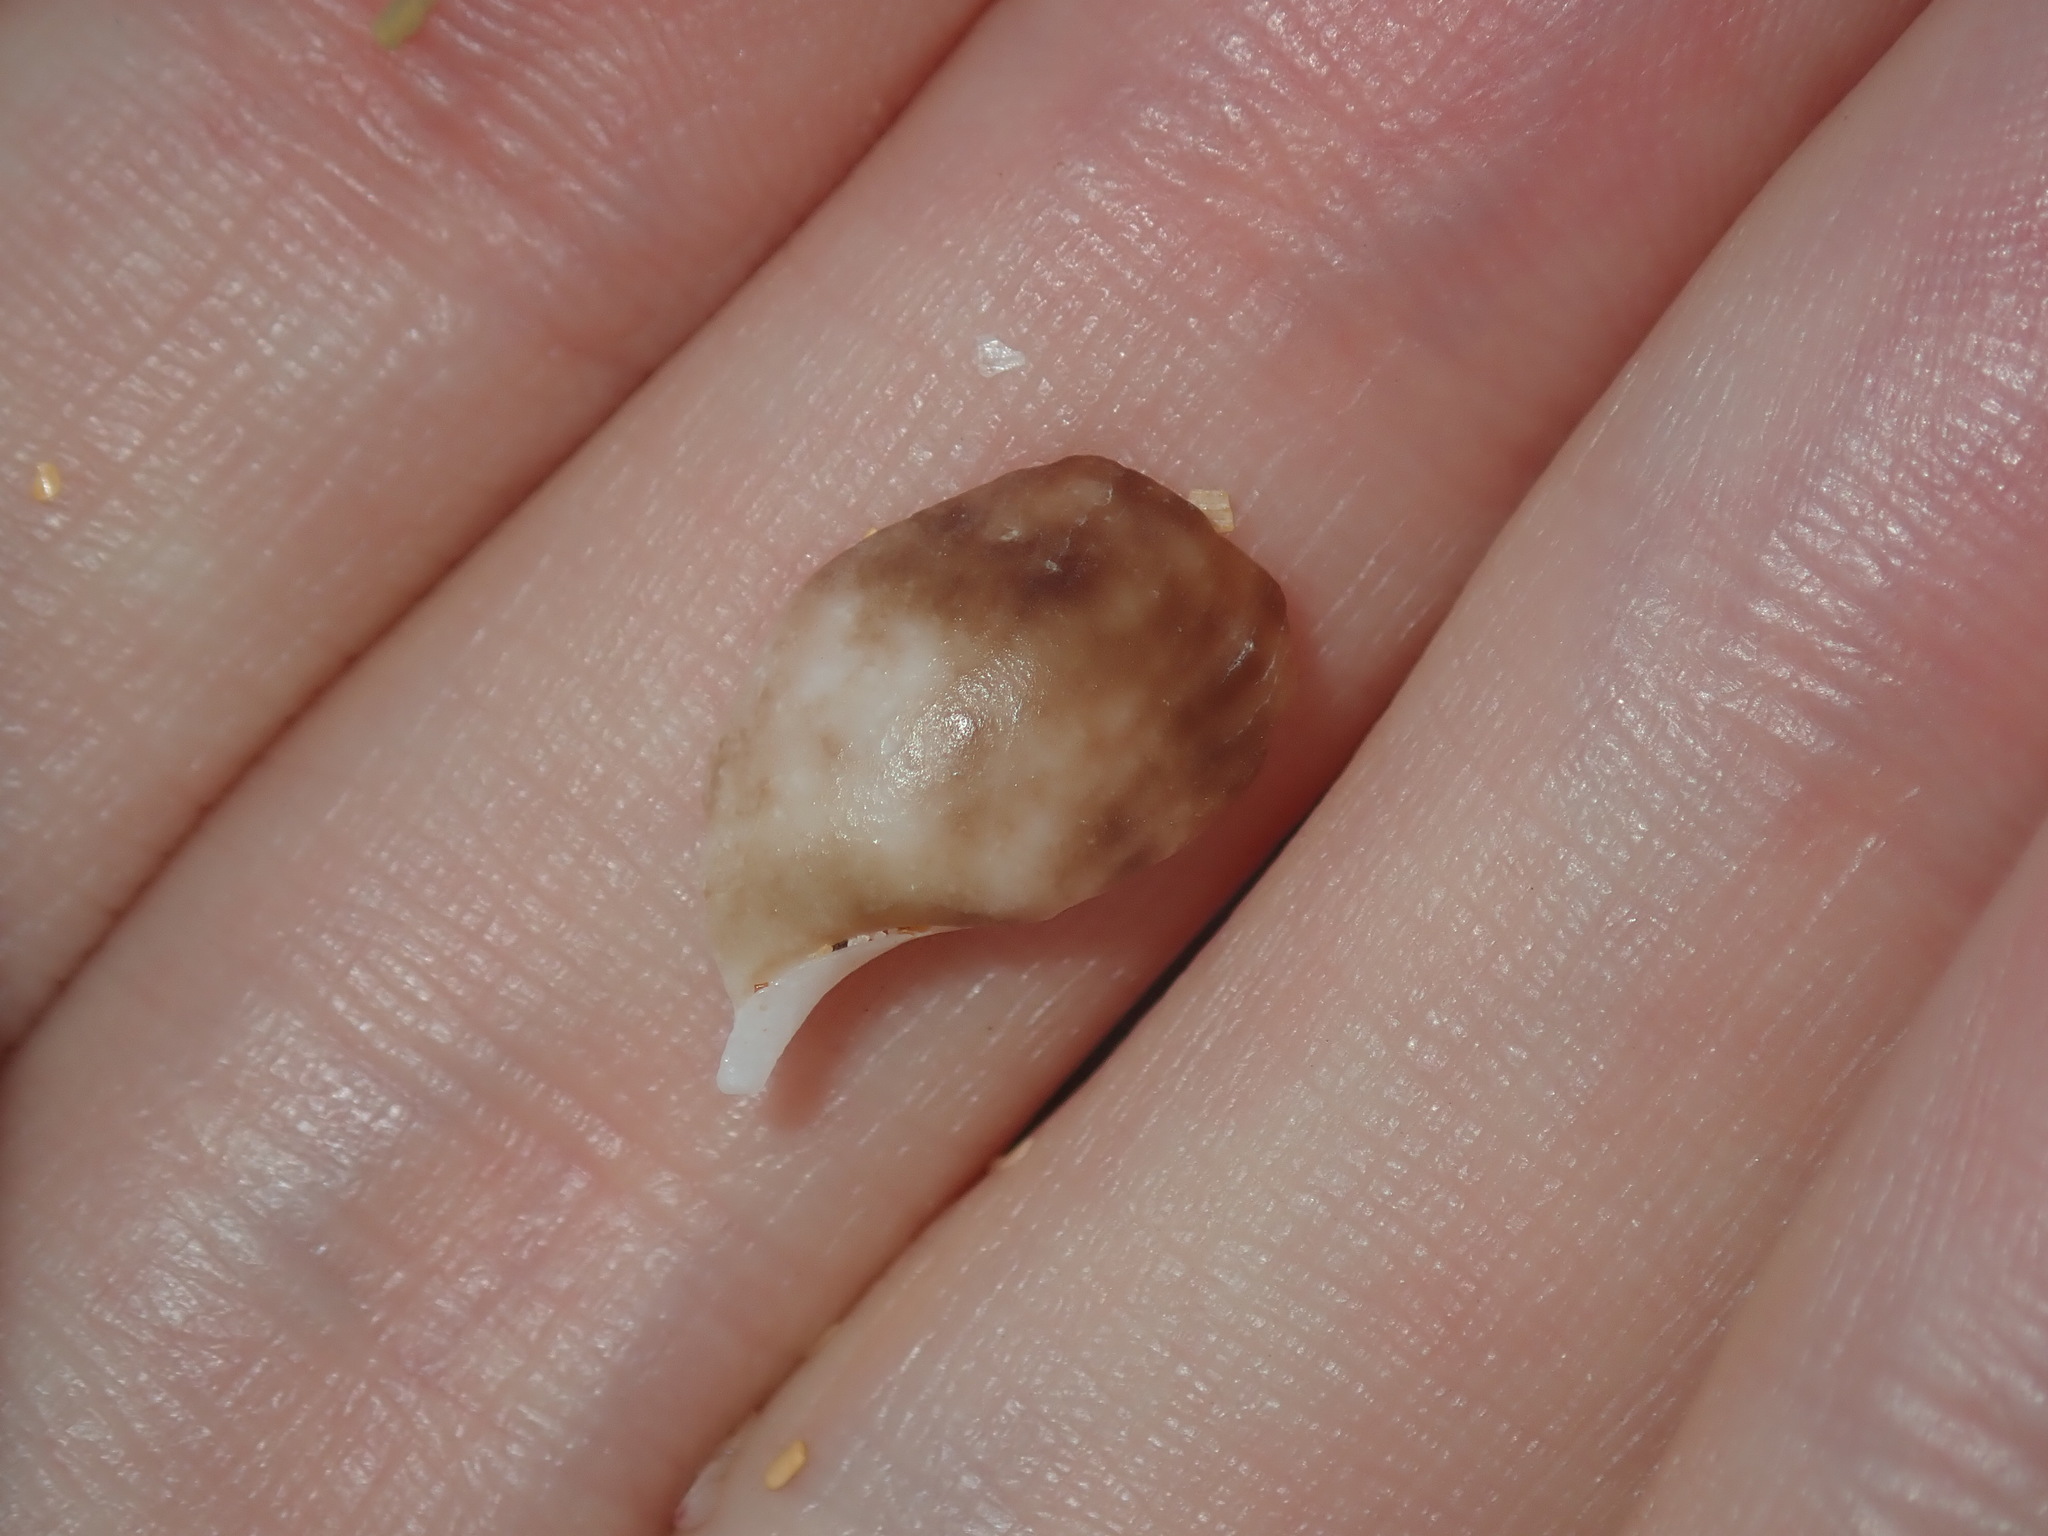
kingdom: Animalia
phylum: Mollusca
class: Gastropoda
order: Cephalaspidea
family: Bullidae
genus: Bulla
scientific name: Bulla quoyii
